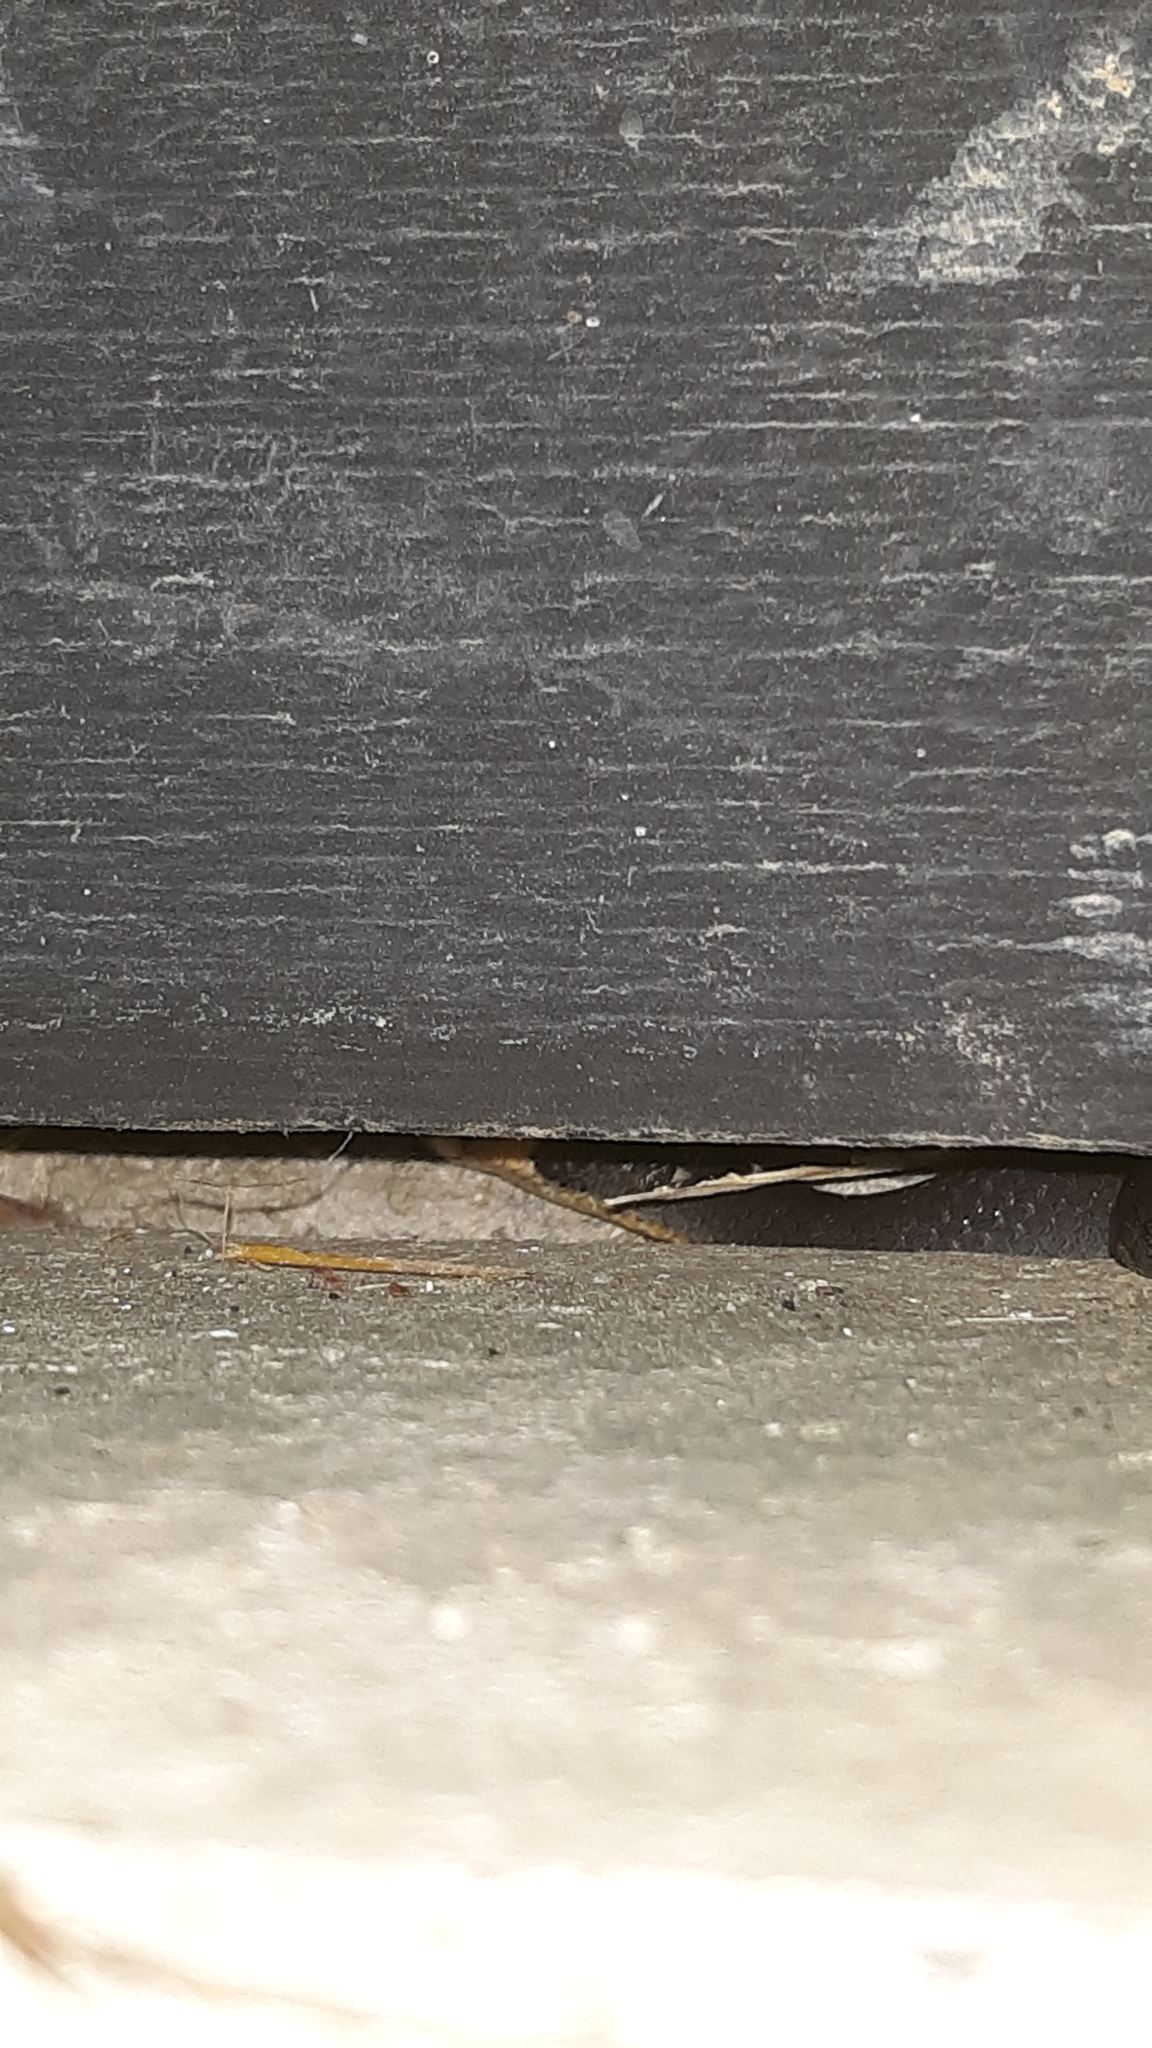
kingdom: Animalia
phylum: Chordata
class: Squamata
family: Colubridae
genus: Diadophis
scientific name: Diadophis punctatus
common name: Ringneck snake
